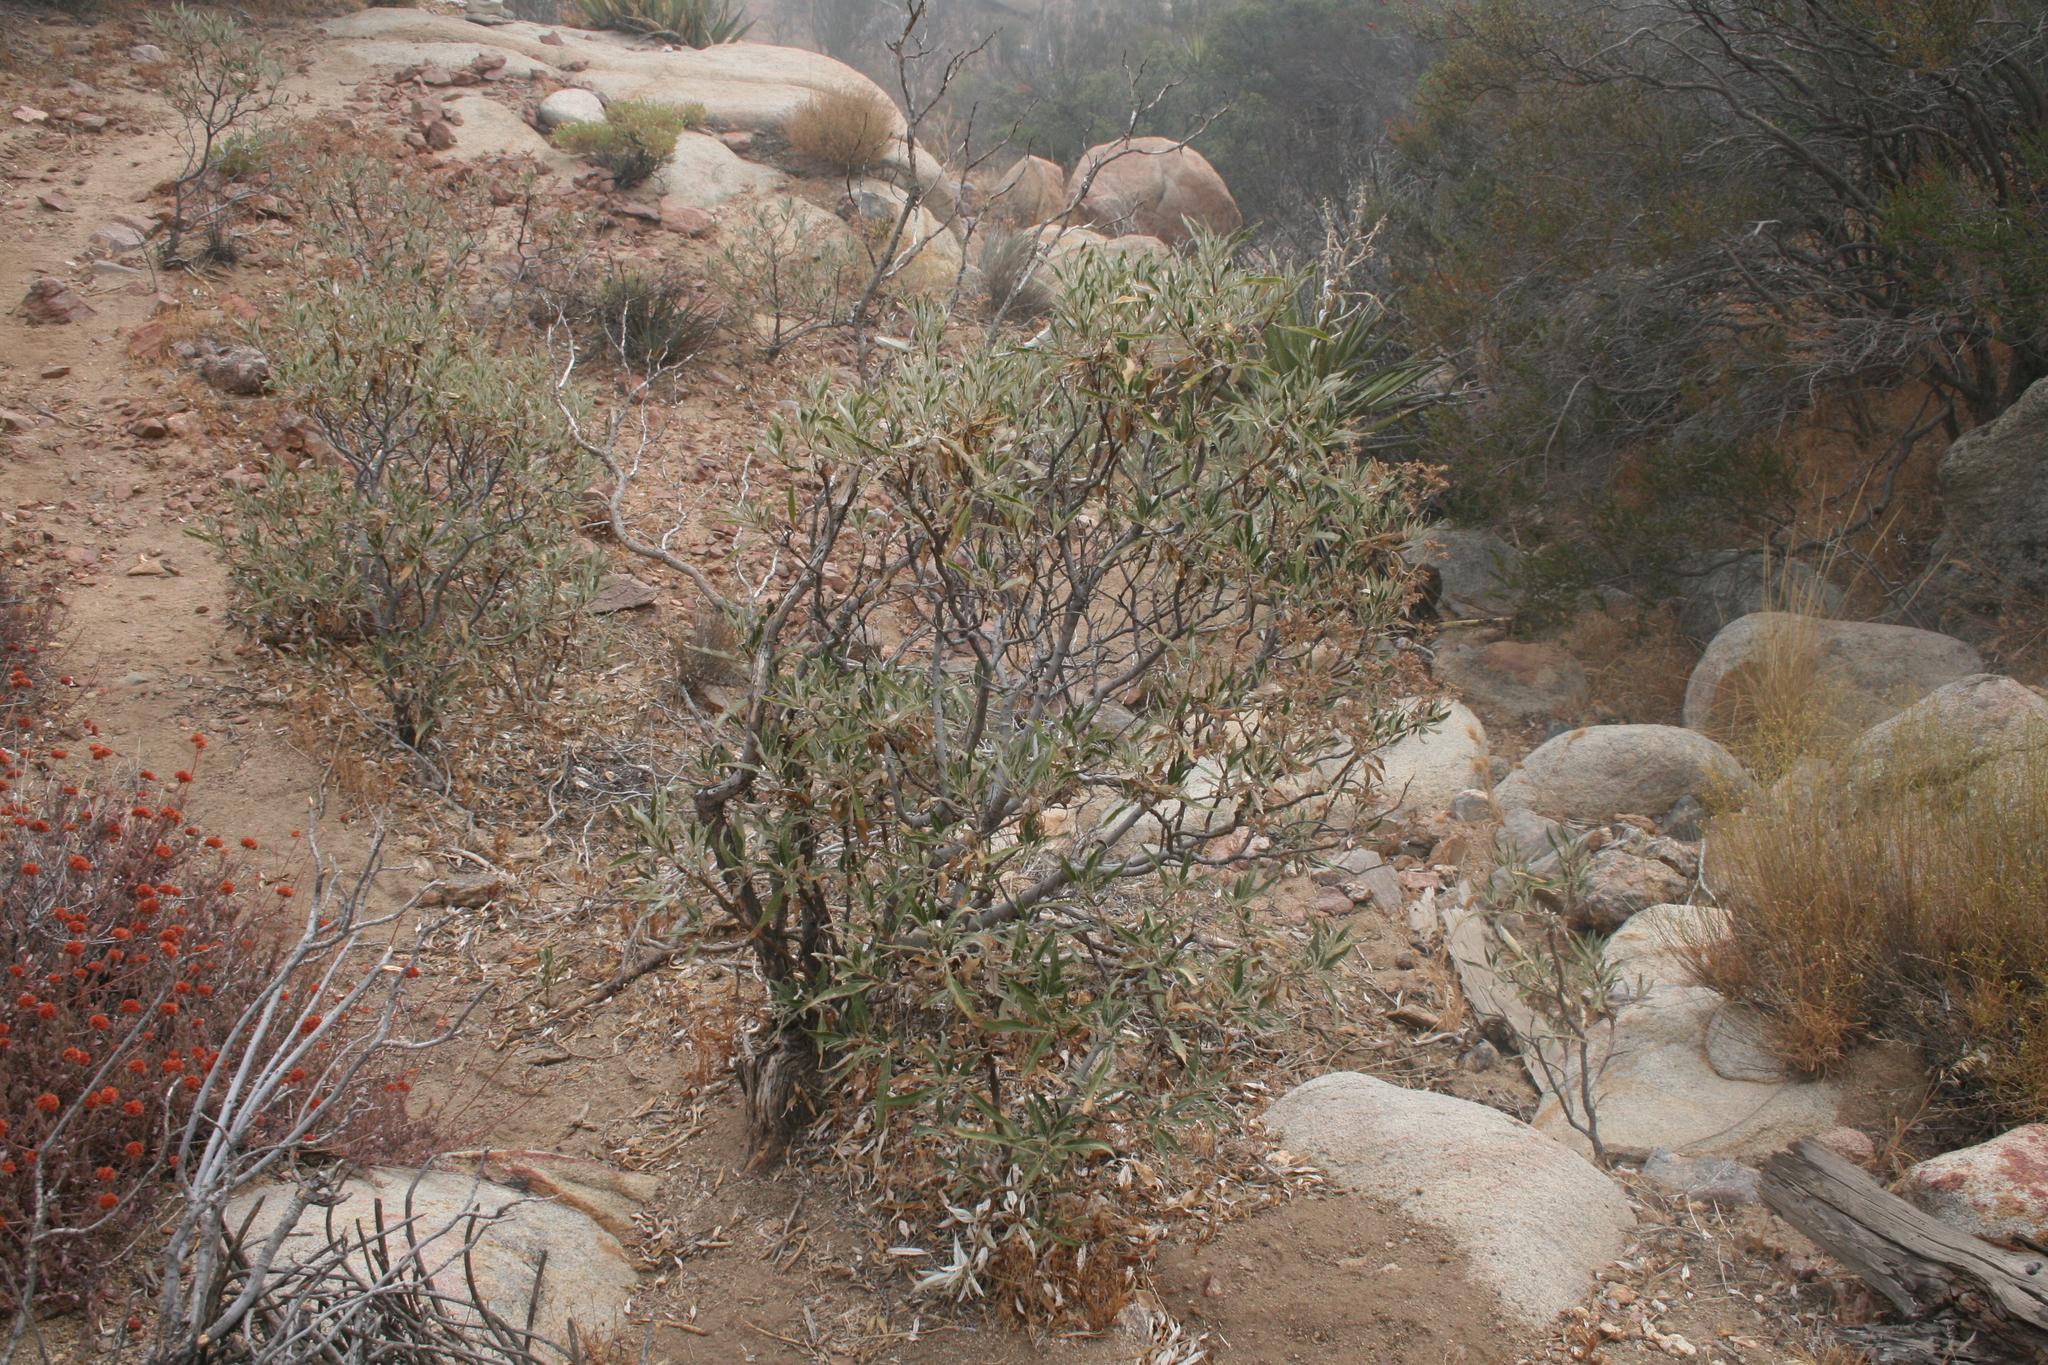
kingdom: Plantae
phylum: Tracheophyta
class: Magnoliopsida
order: Boraginales
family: Namaceae
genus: Eriodictyon
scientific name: Eriodictyon trichocalyx
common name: Hairy yerba-santa
